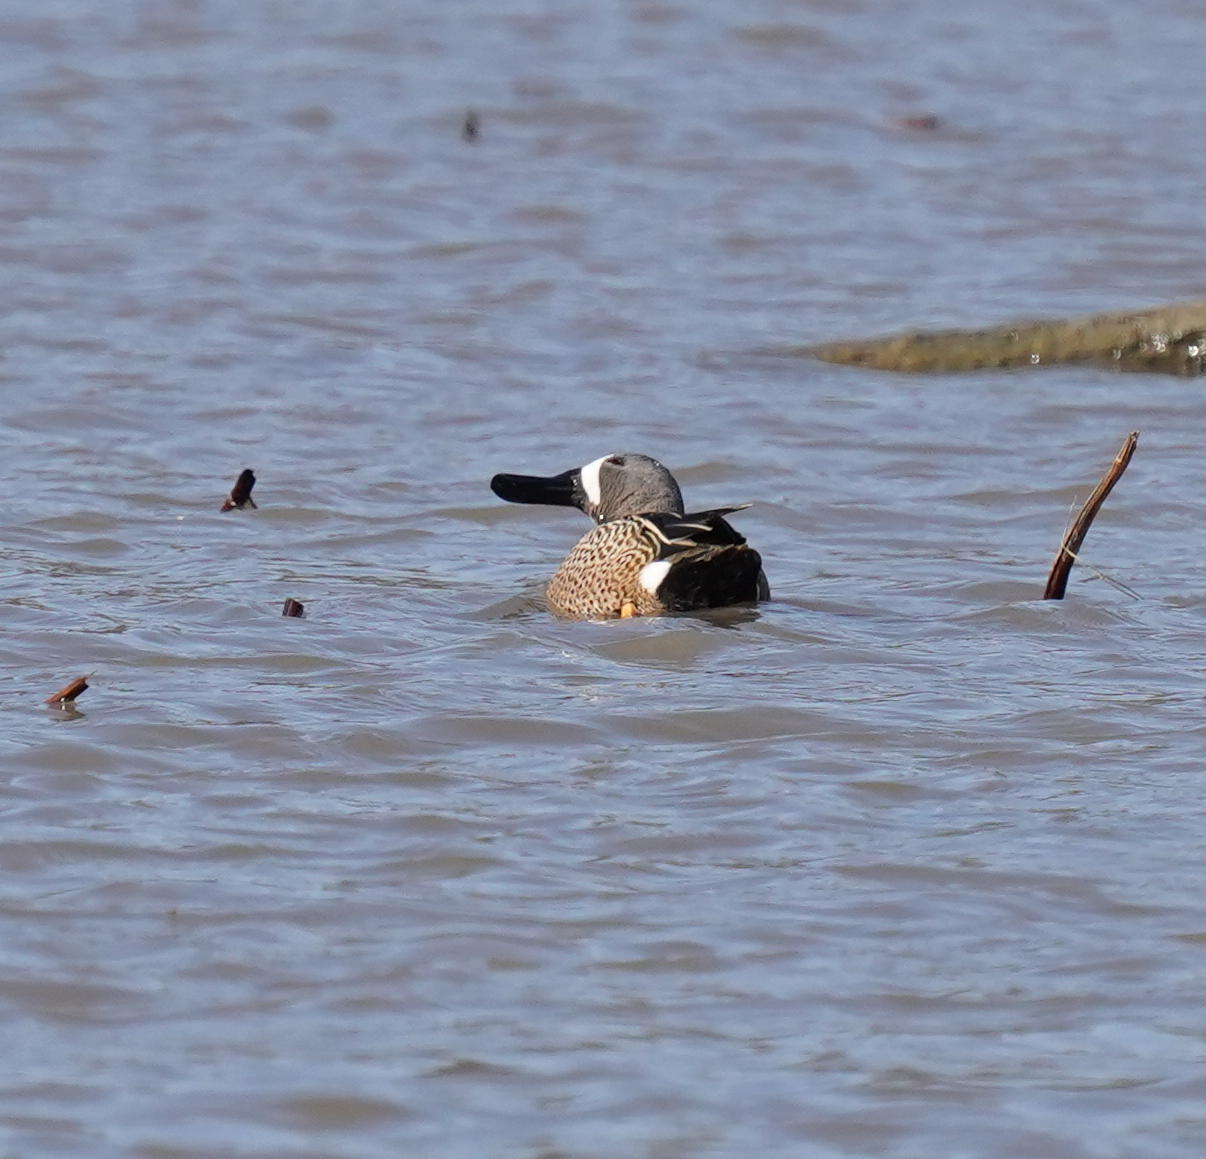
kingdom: Animalia
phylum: Chordata
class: Aves
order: Anseriformes
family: Anatidae
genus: Spatula
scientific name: Spatula discors
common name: Blue-winged teal
